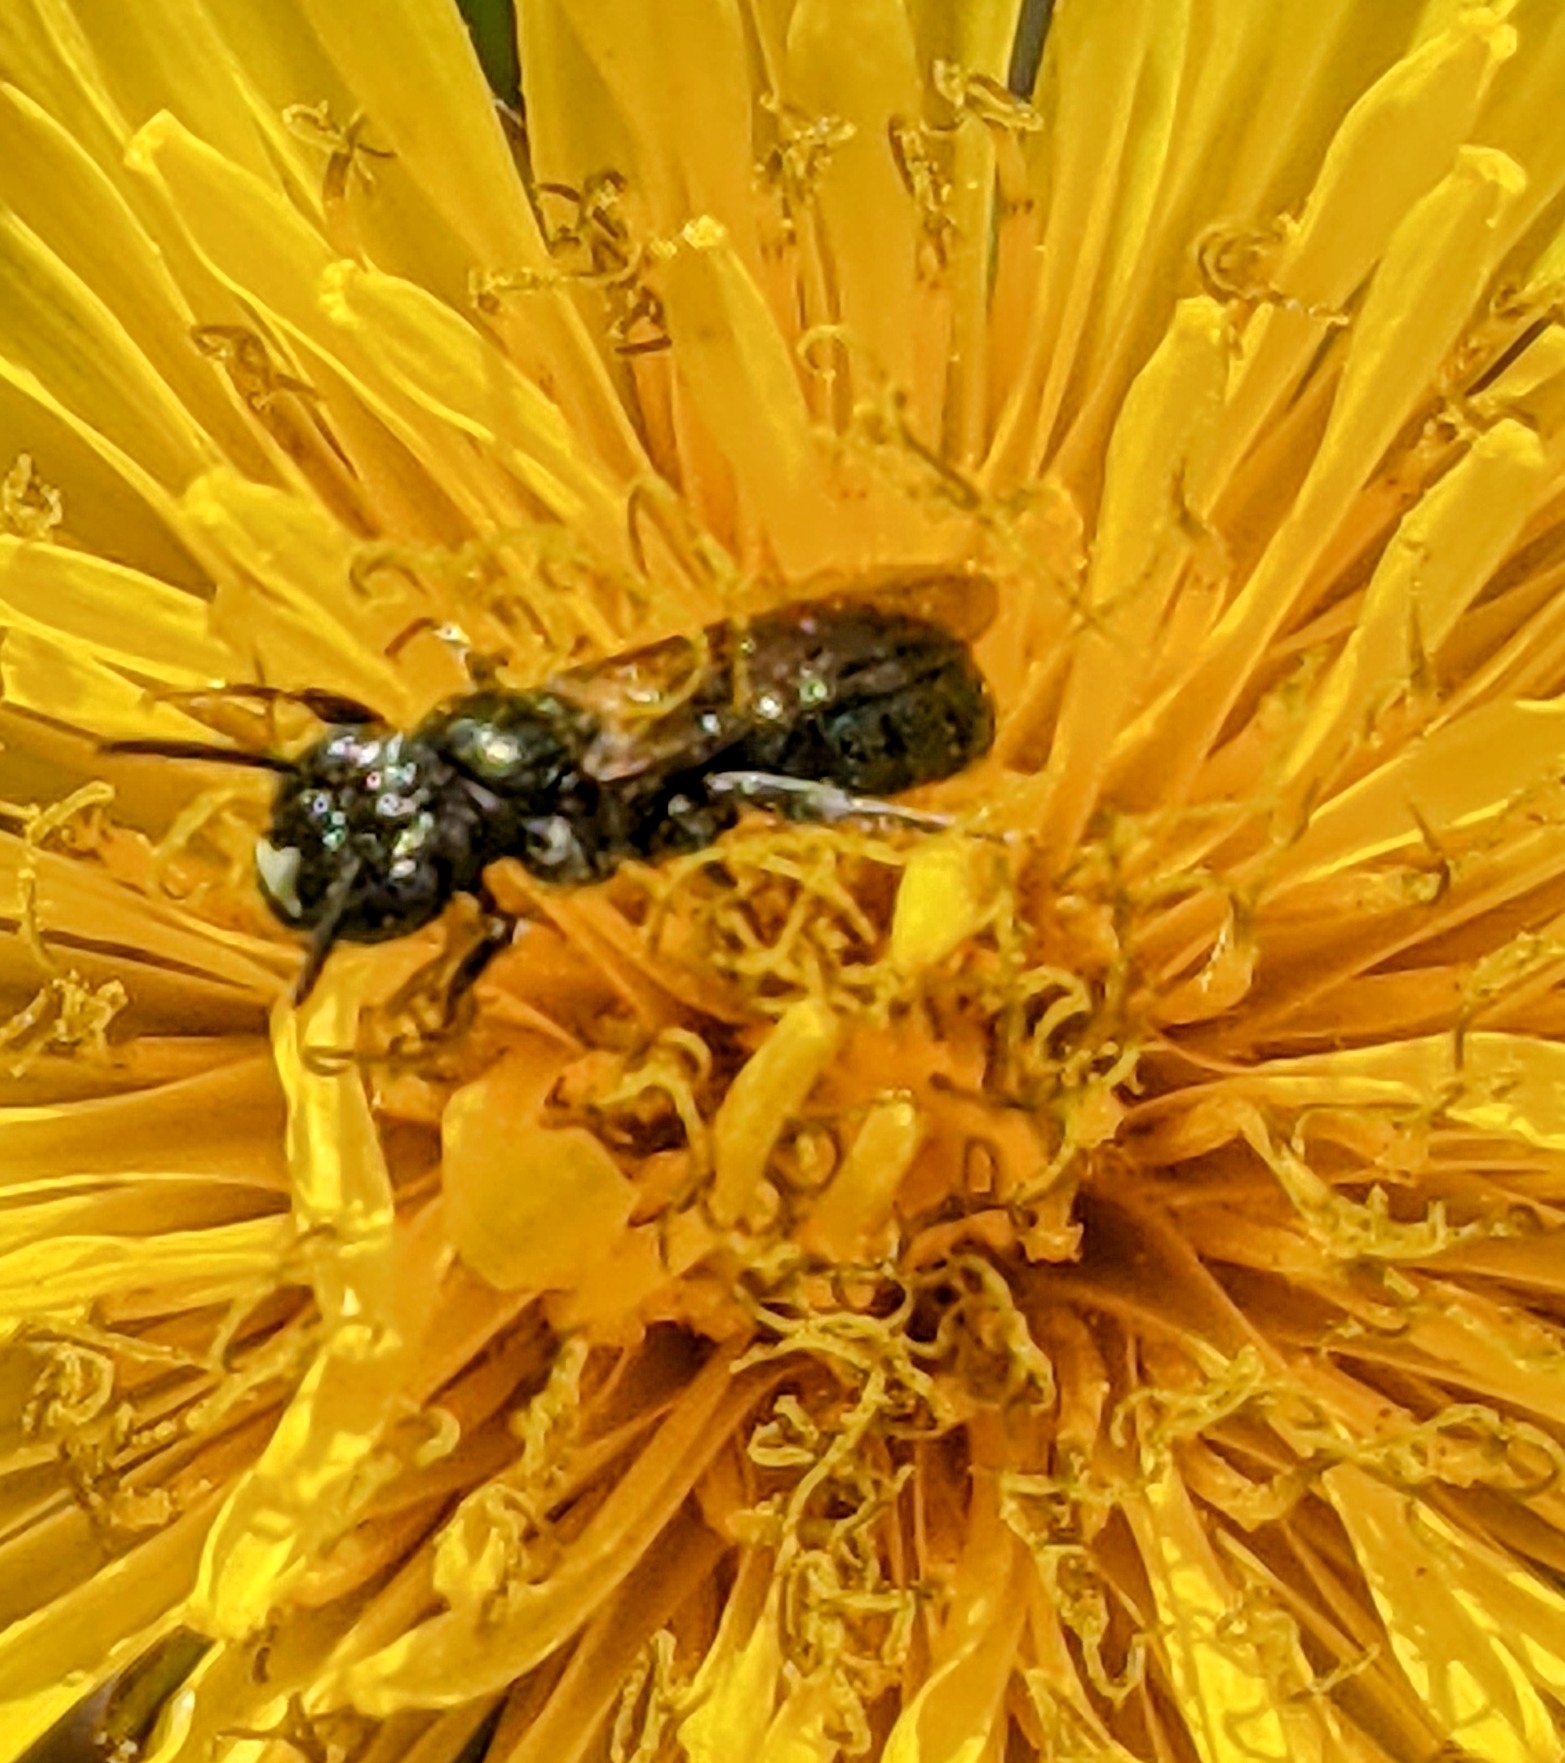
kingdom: Animalia
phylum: Arthropoda
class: Insecta
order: Hymenoptera
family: Apidae
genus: Ceratina
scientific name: Ceratina calcarata
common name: Spurred carpenter bee
